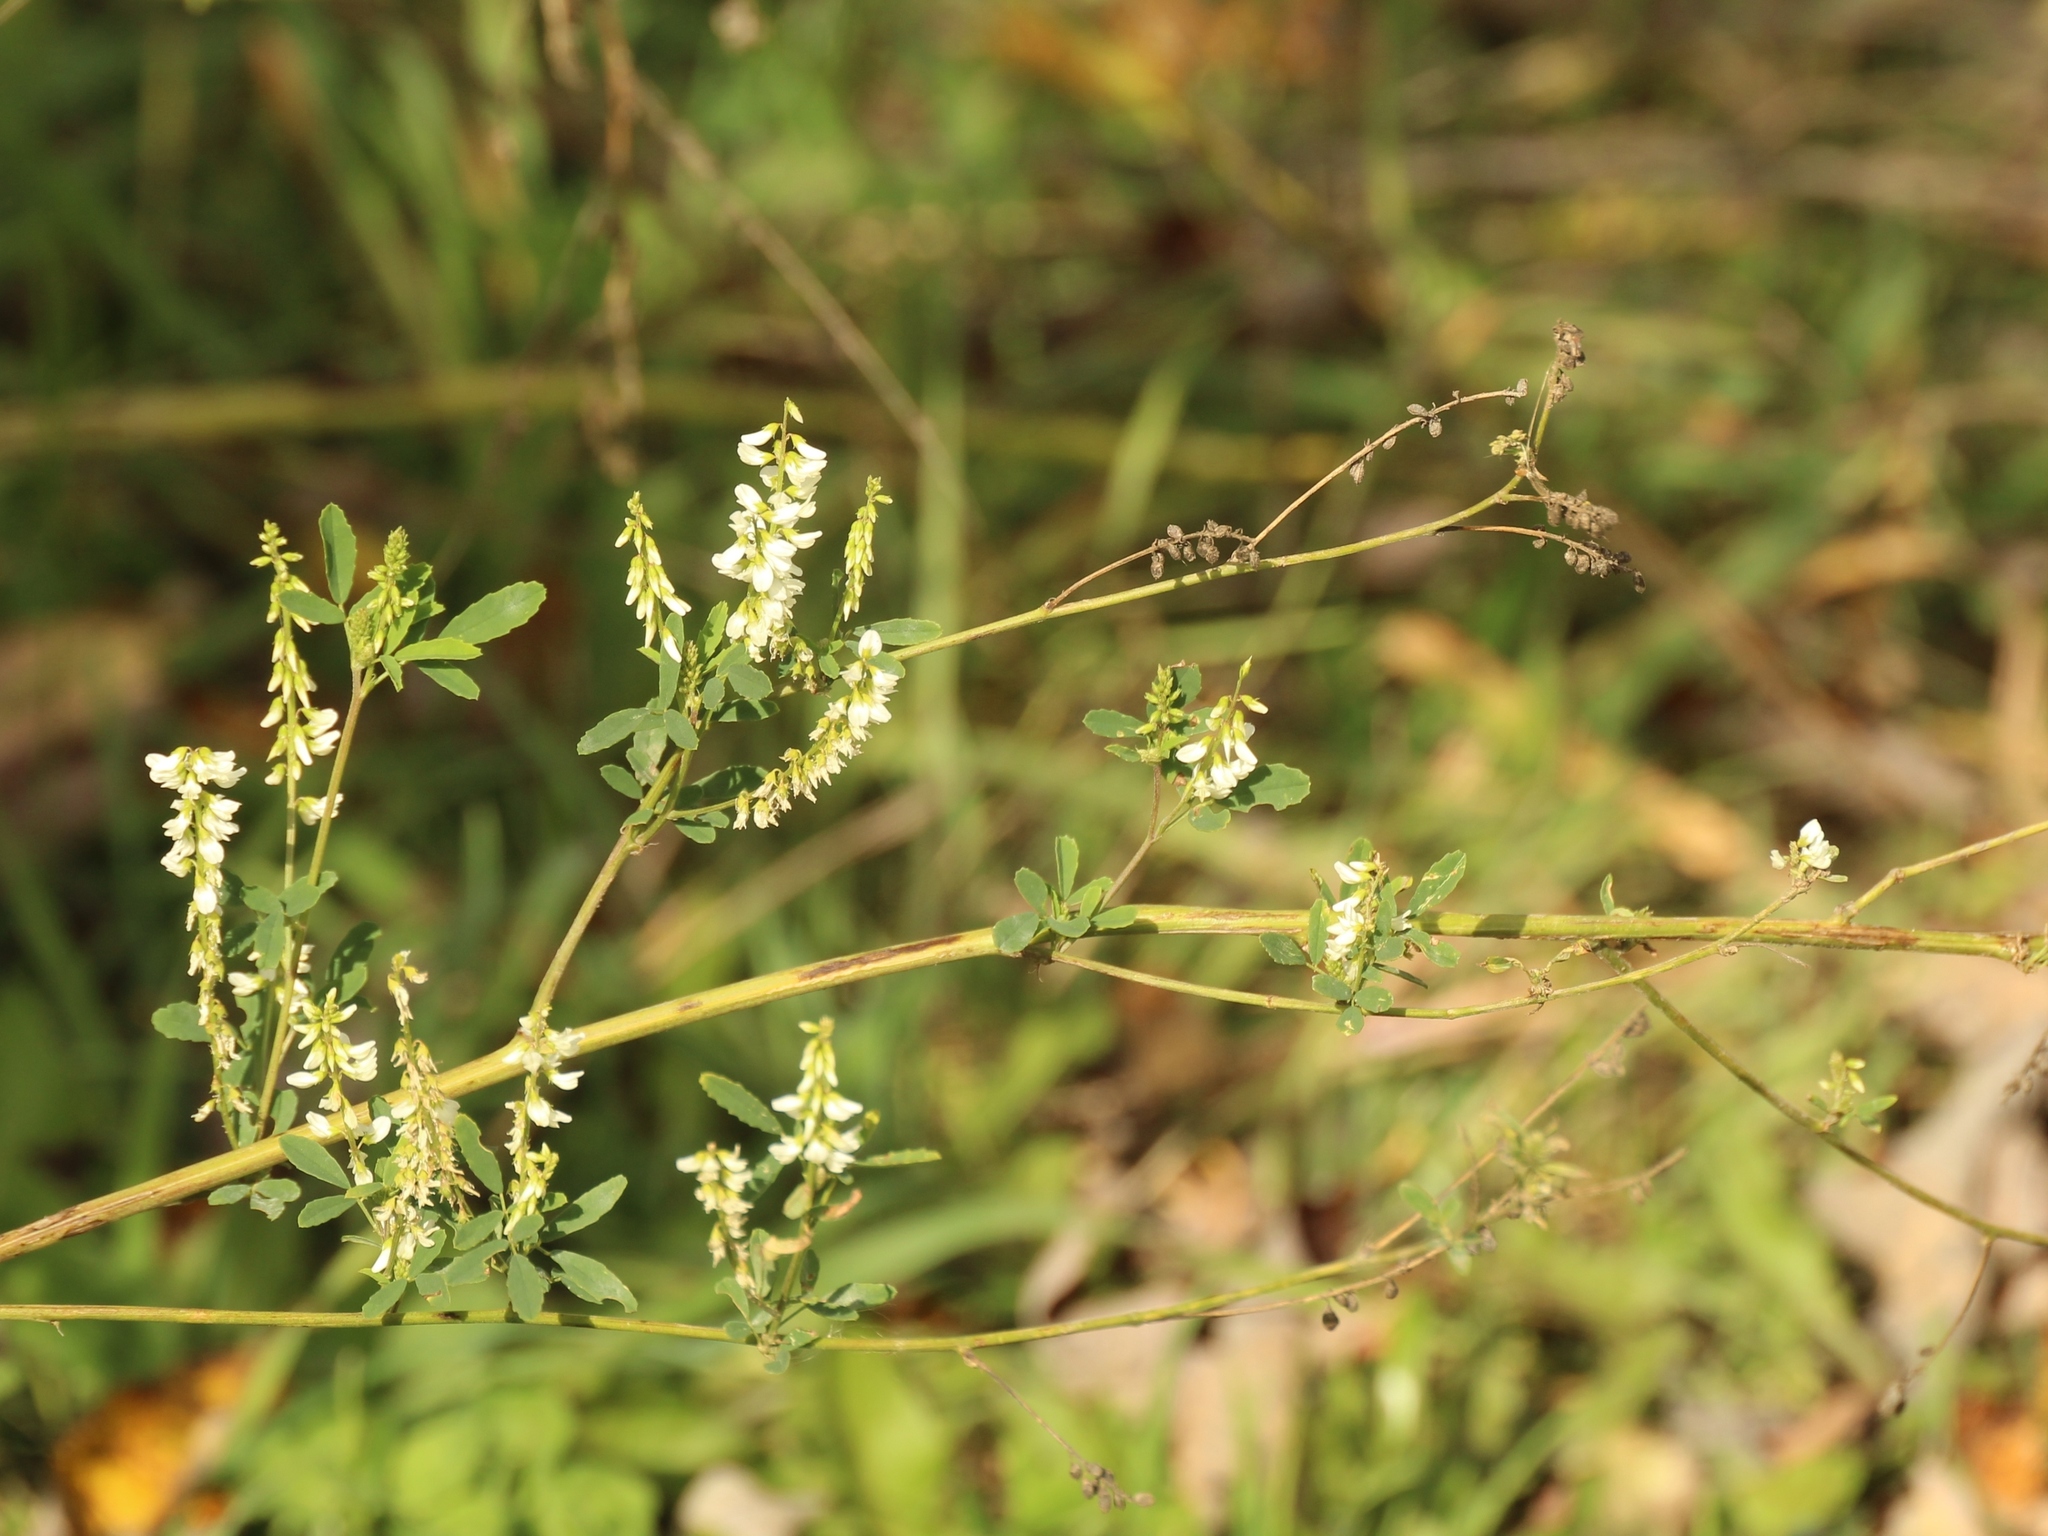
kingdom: Plantae
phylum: Tracheophyta
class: Magnoliopsida
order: Fabales
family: Fabaceae
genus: Melilotus
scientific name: Melilotus albus
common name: White melilot
